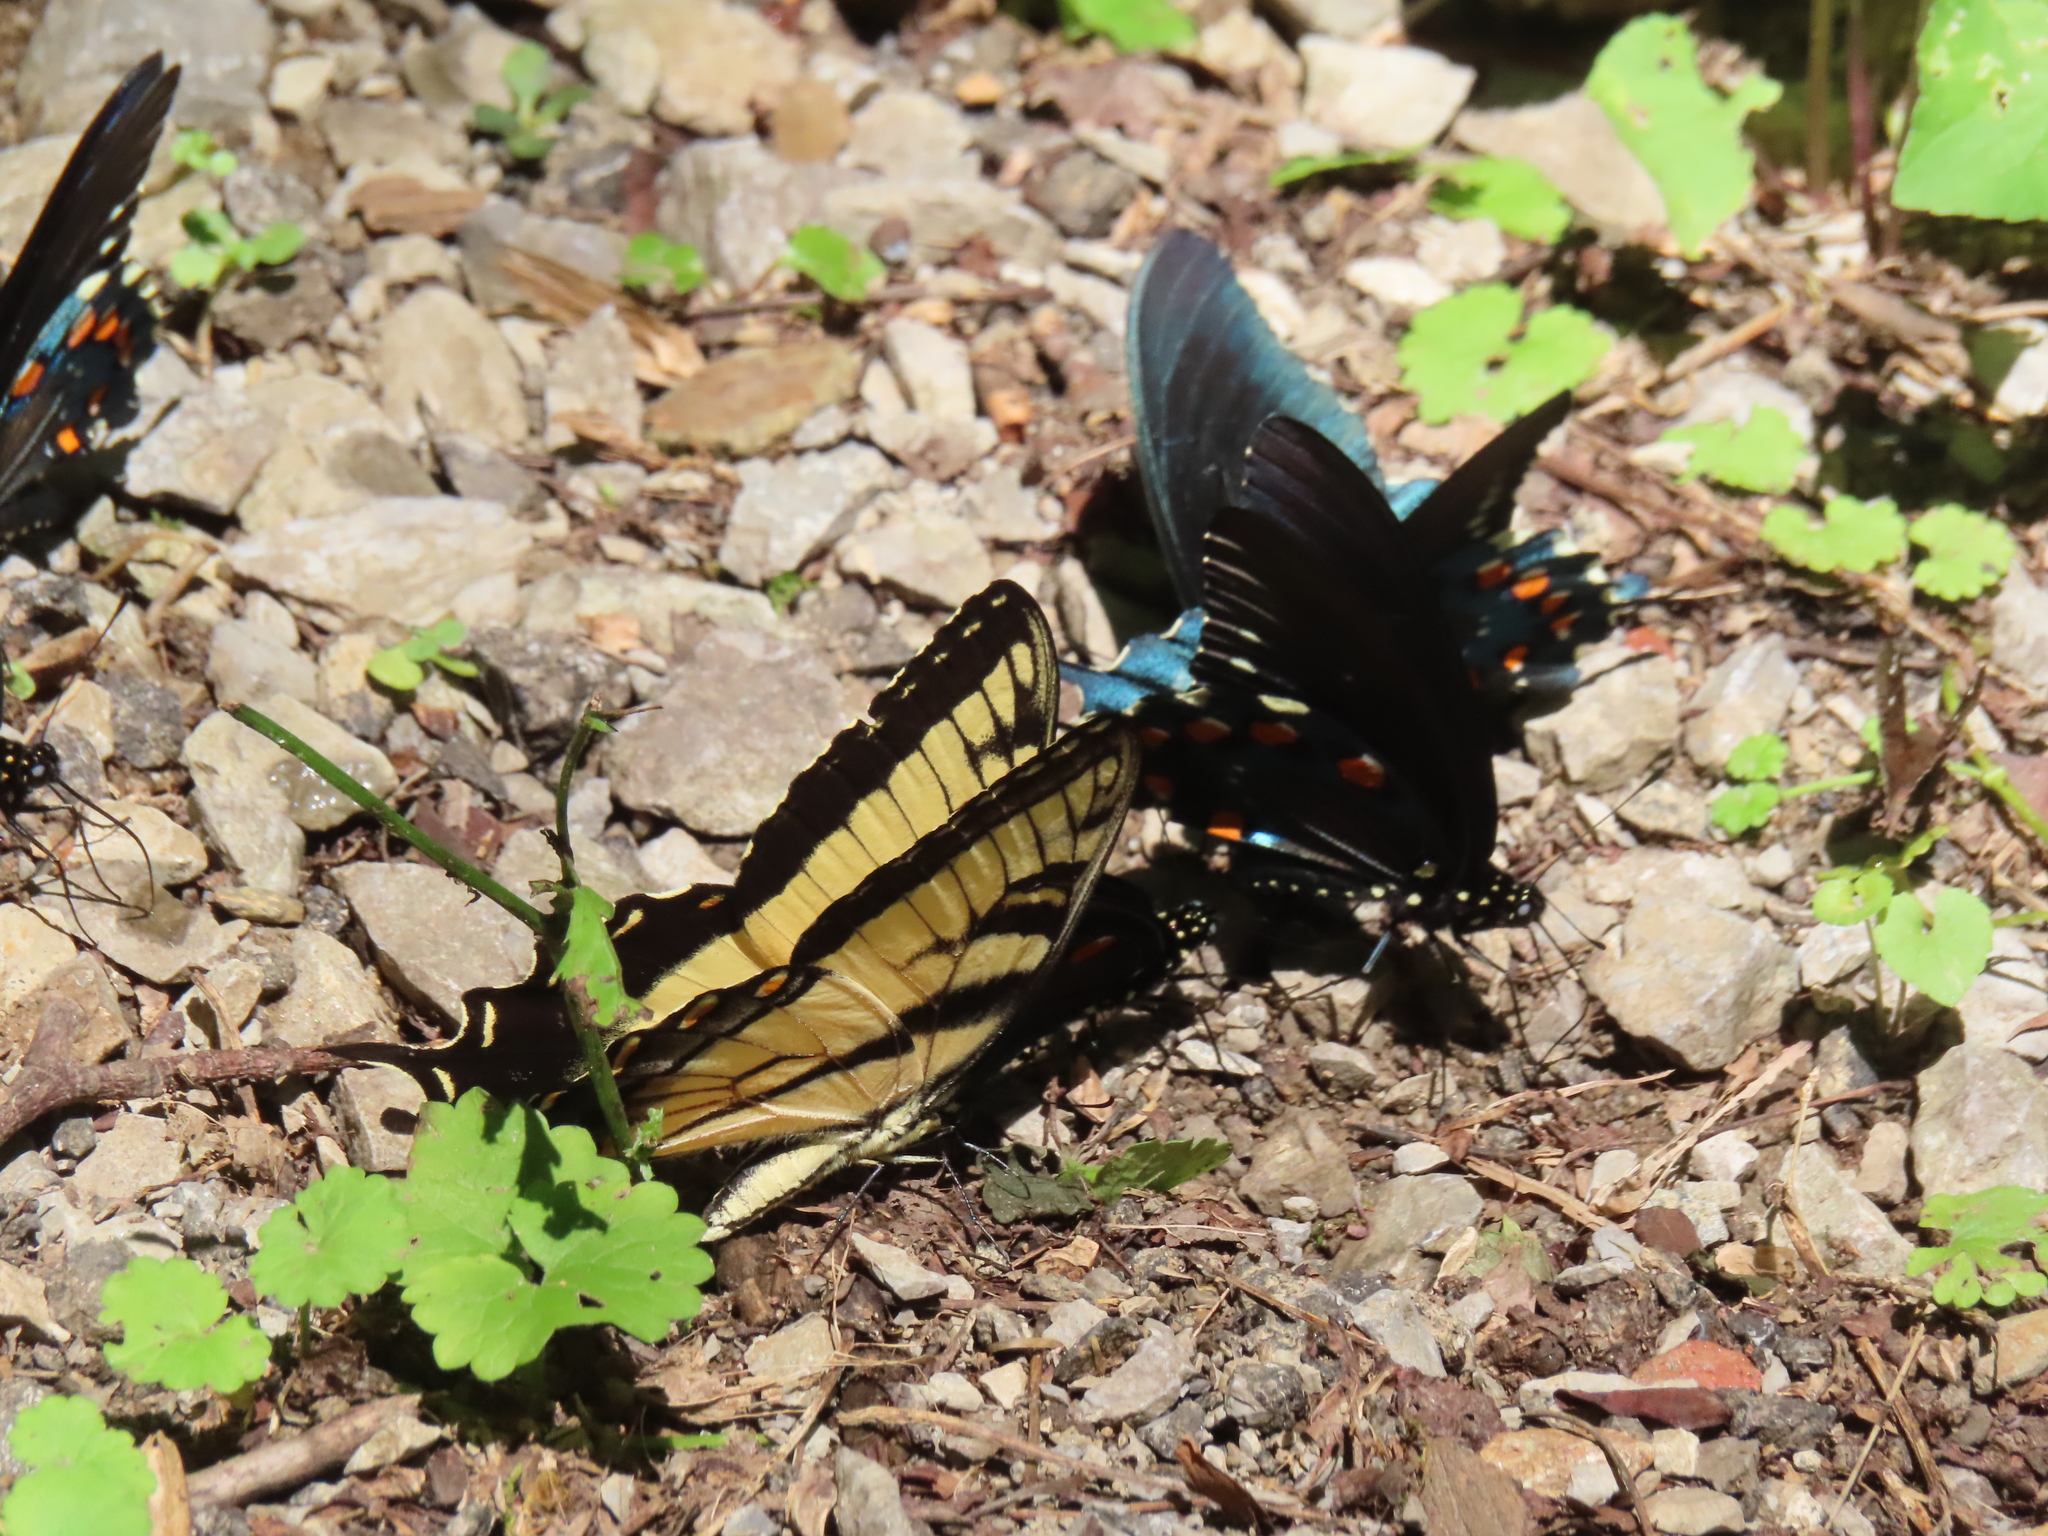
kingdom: Animalia
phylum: Arthropoda
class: Insecta
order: Lepidoptera
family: Papilionidae
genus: Battus
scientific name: Battus philenor
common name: Pipevine swallowtail
